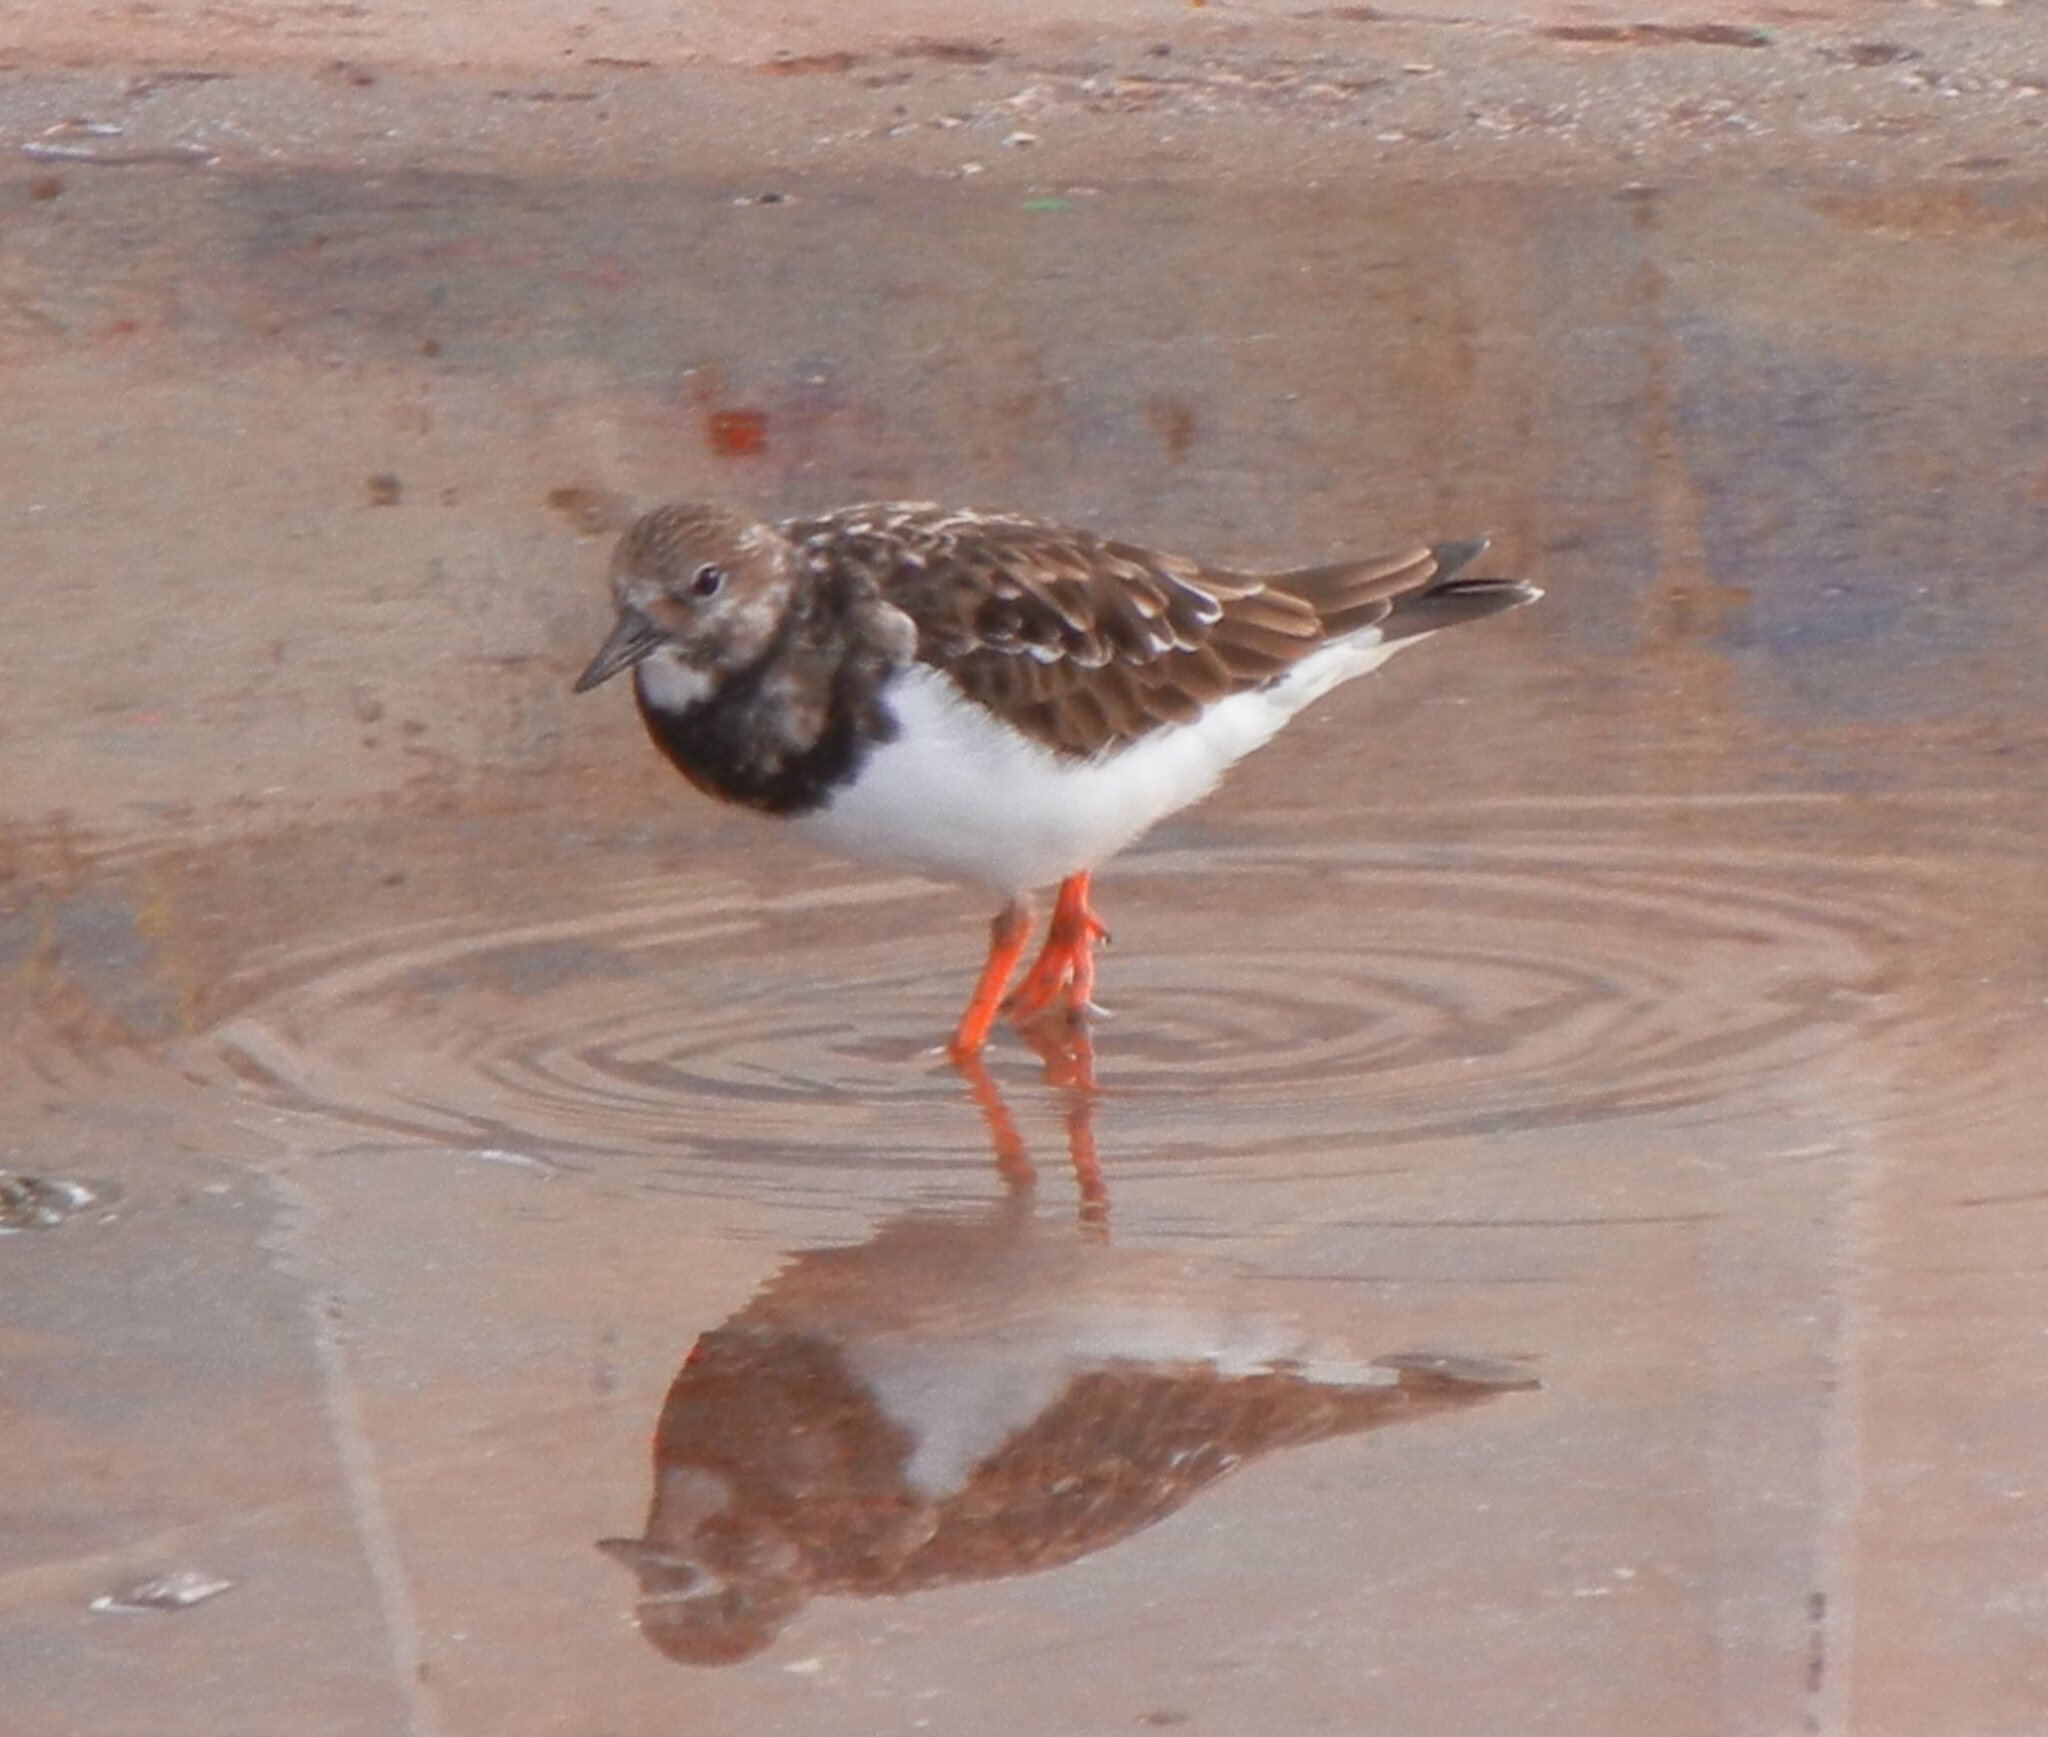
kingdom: Animalia
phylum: Chordata
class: Aves
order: Charadriiformes
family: Scolopacidae
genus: Arenaria
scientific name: Arenaria interpres
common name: Ruddy turnstone
